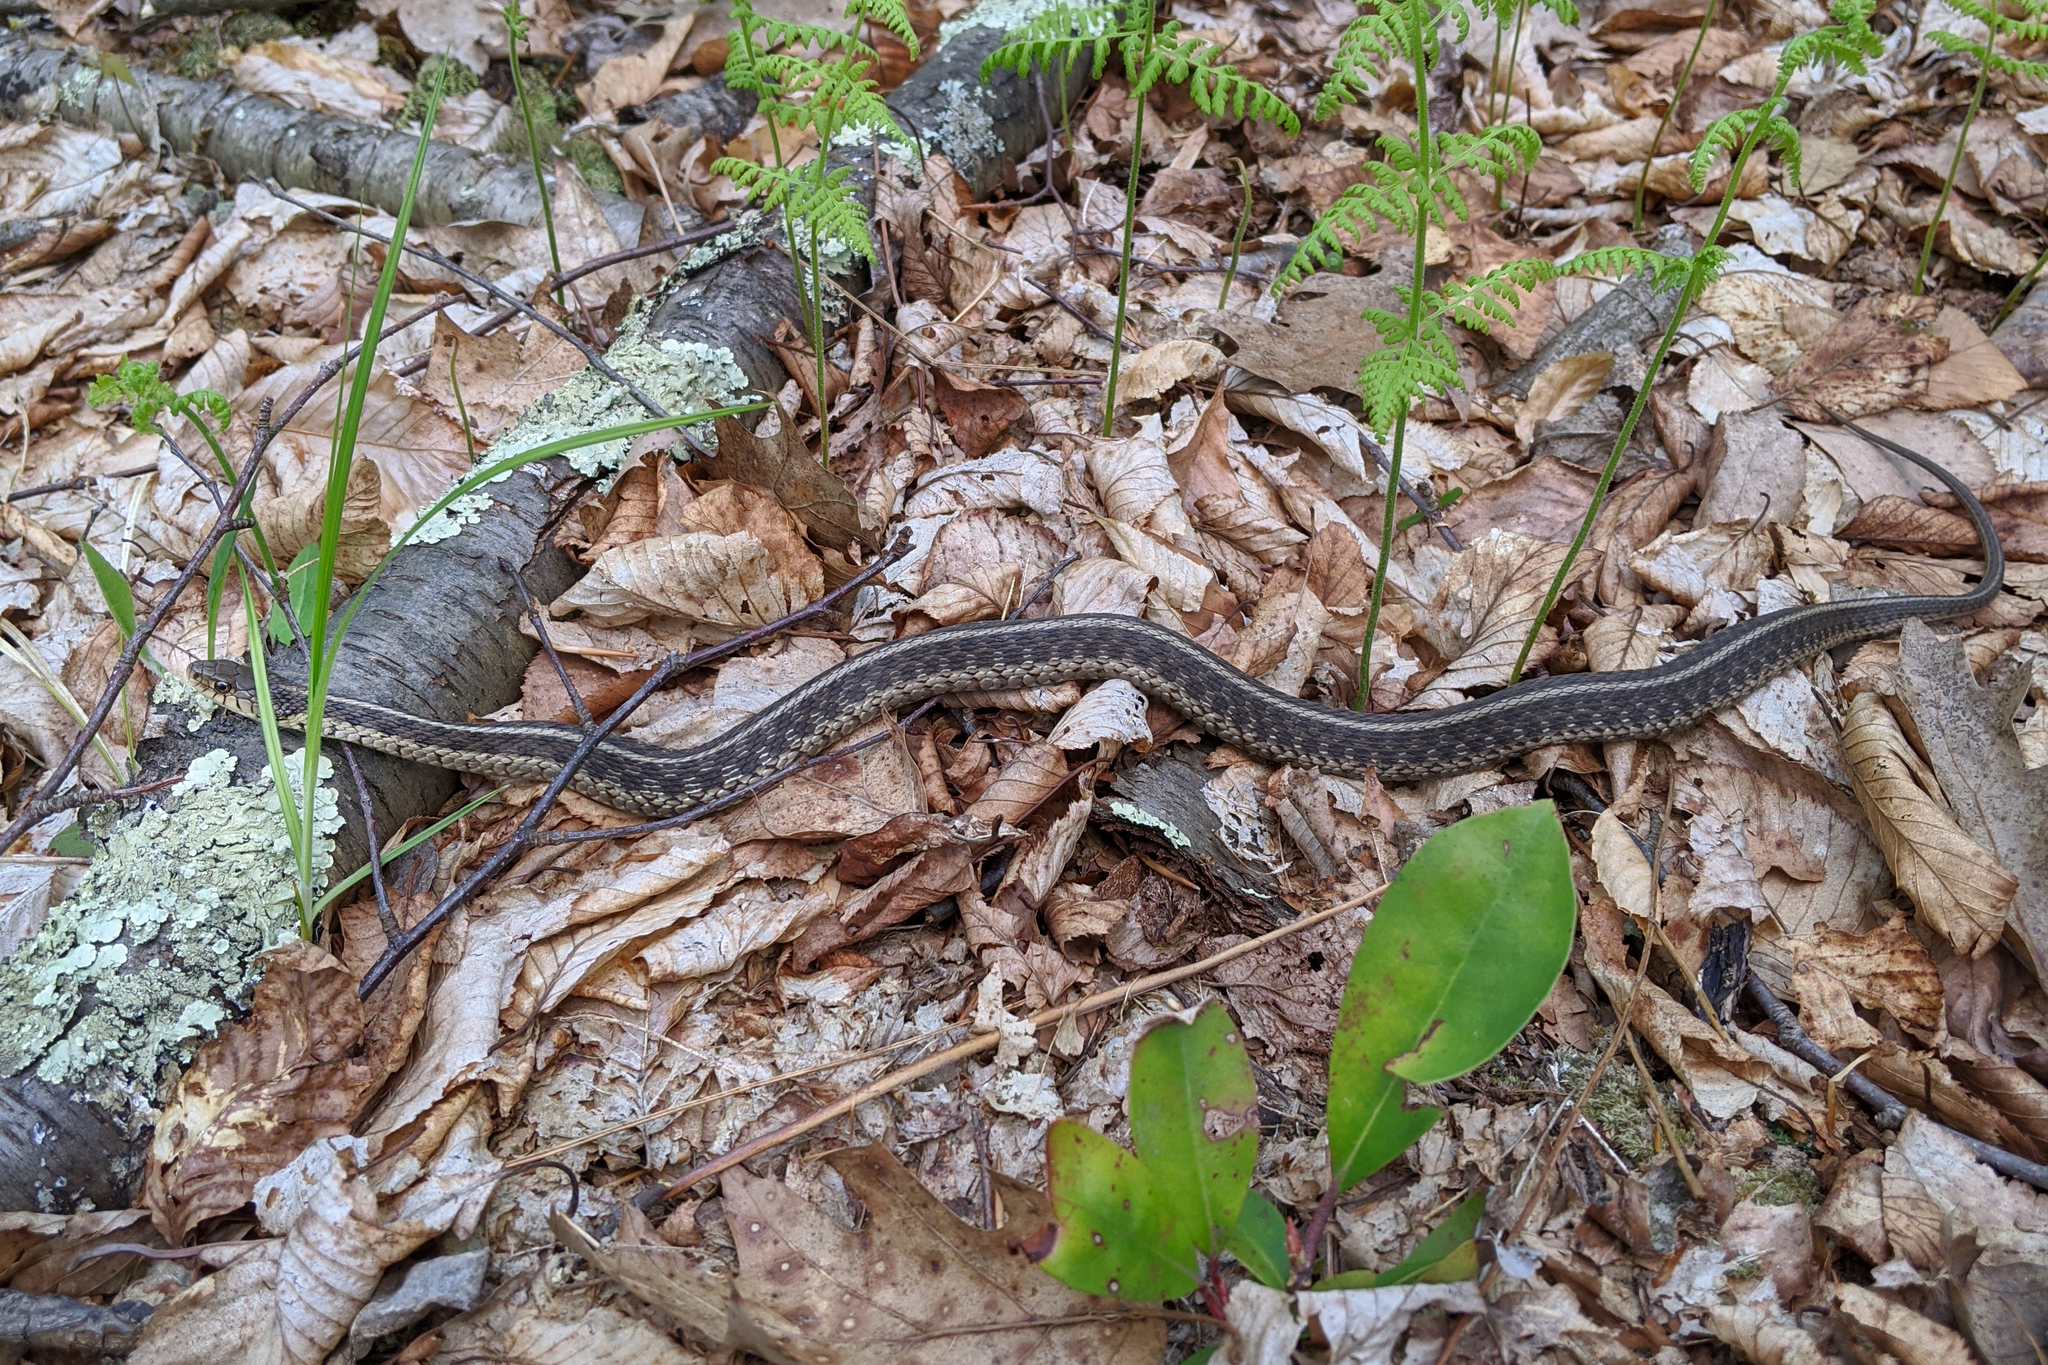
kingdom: Animalia
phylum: Chordata
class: Squamata
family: Colubridae
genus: Thamnophis
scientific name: Thamnophis sirtalis
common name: Common garter snake
